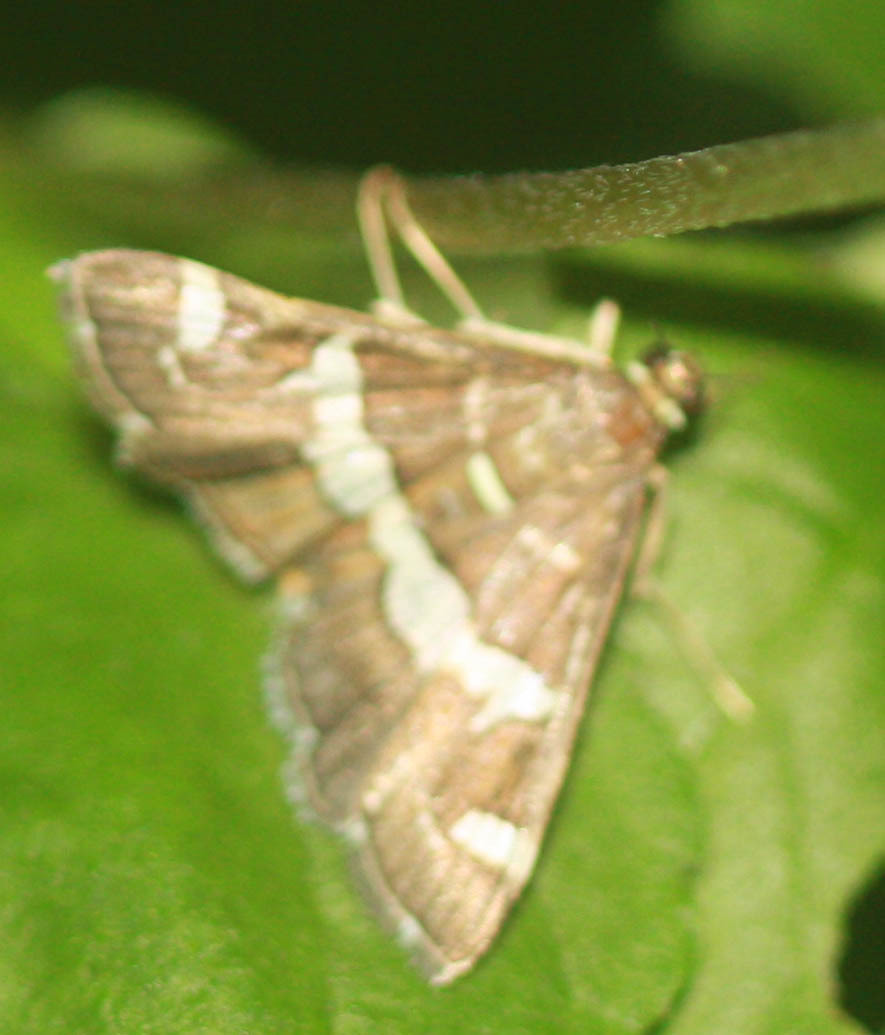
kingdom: Animalia
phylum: Arthropoda
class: Insecta
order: Lepidoptera
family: Crambidae
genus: Spoladea
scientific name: Spoladea recurvalis
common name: Beet webworm moth
